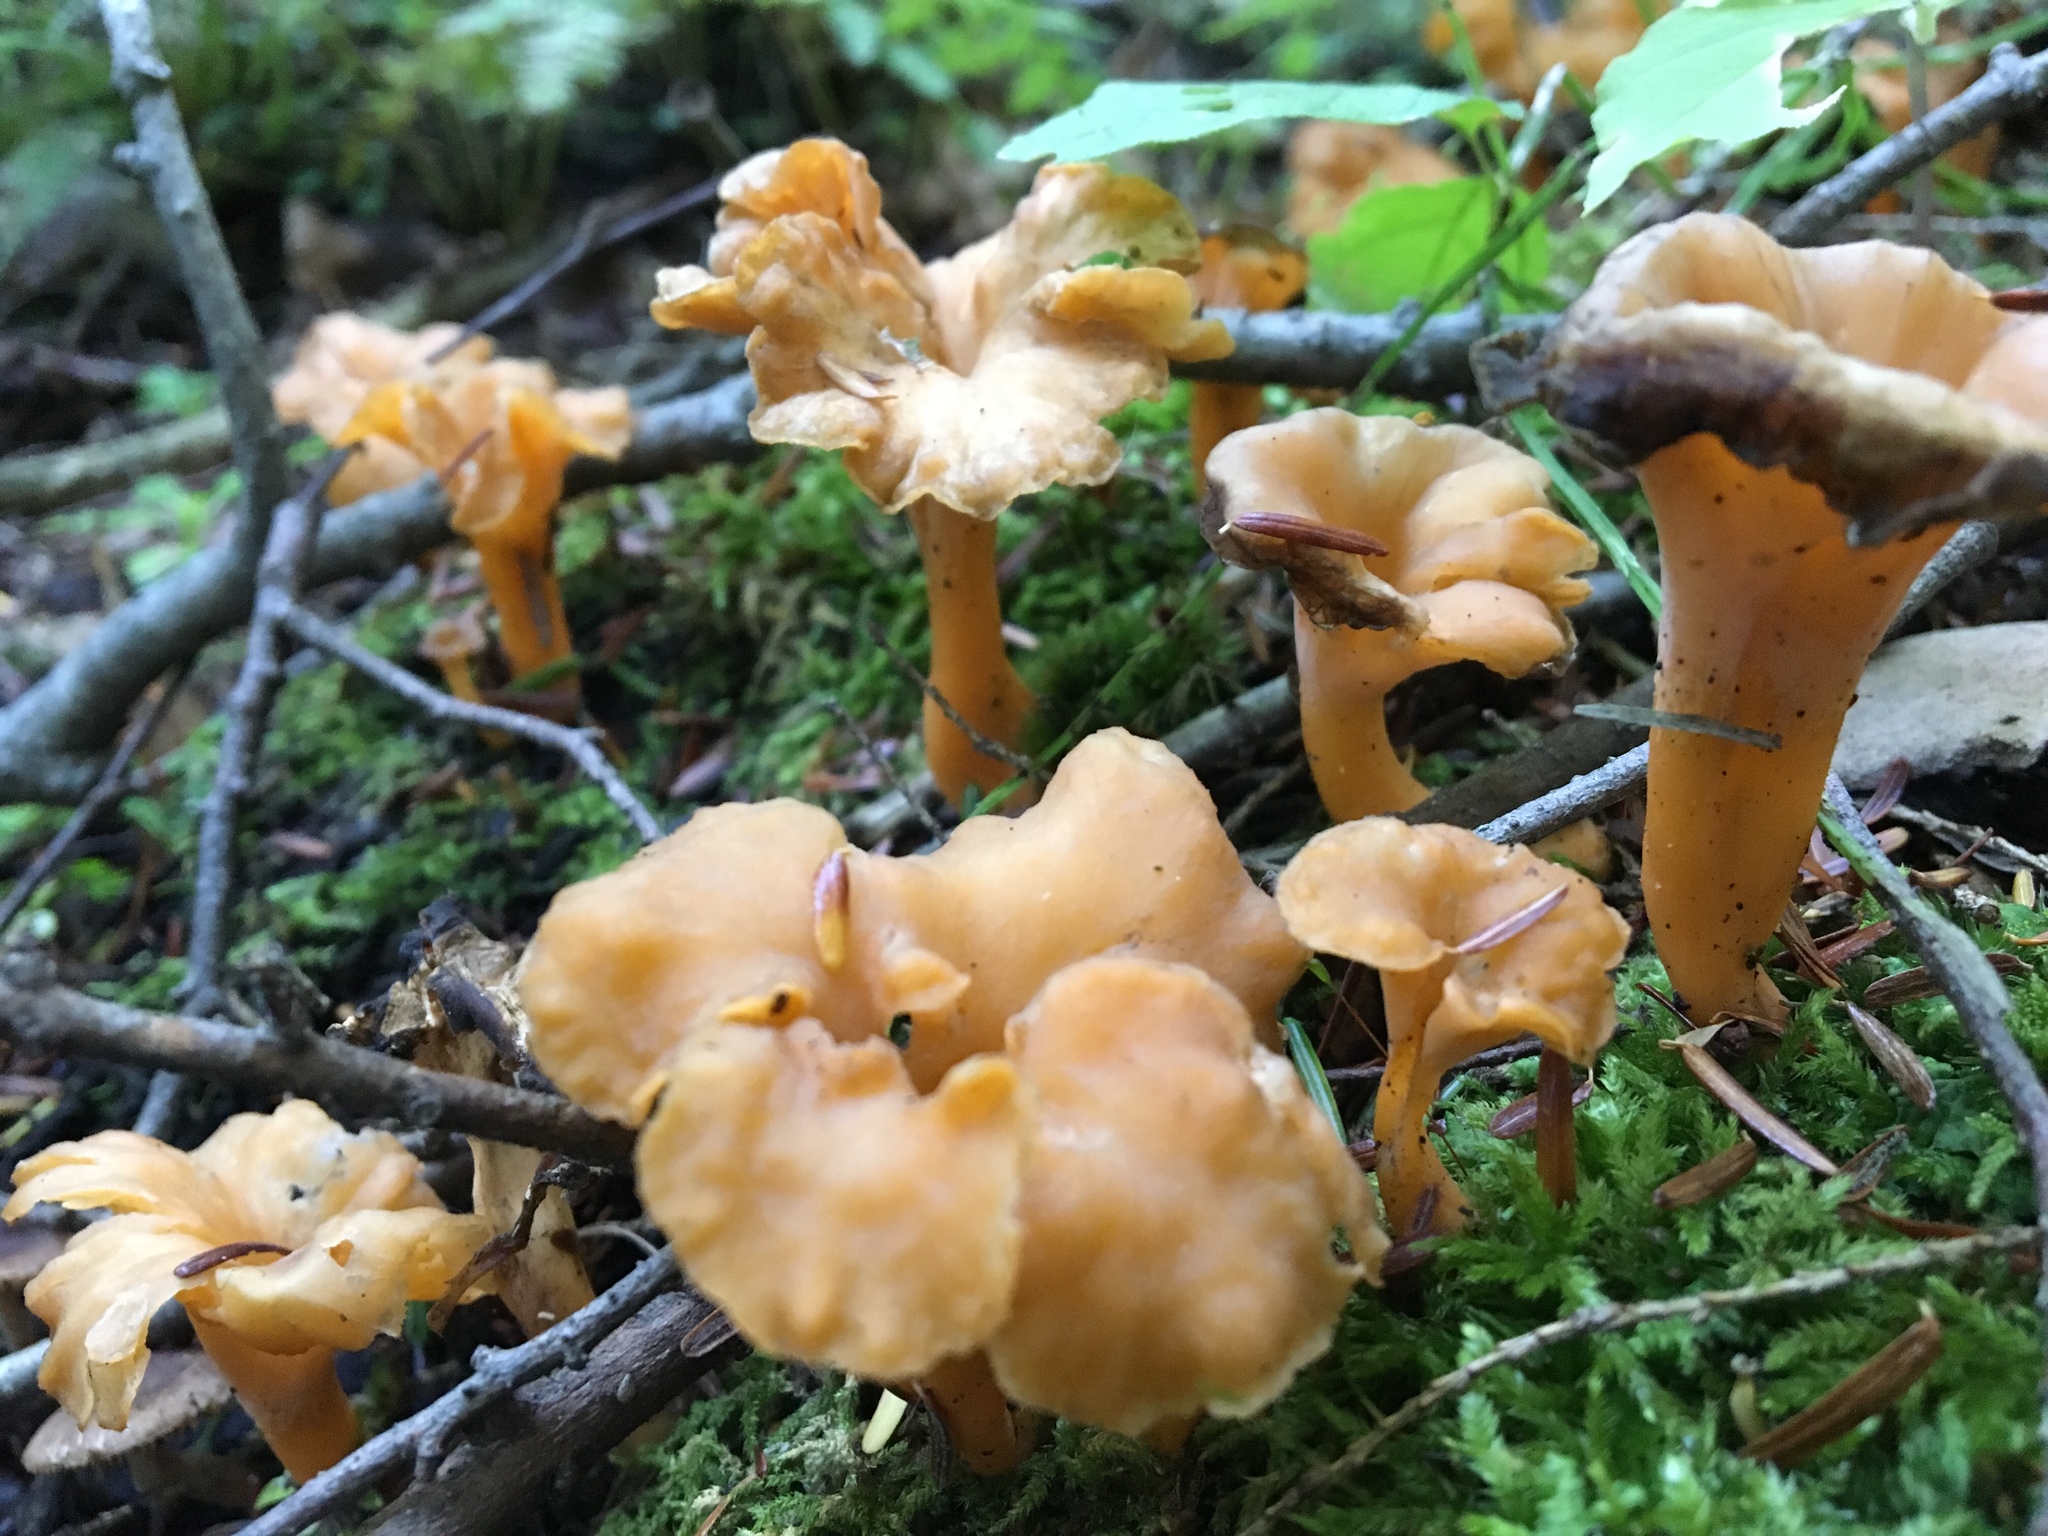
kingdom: Fungi
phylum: Basidiomycota
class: Agaricomycetes
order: Cantharellales
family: Hydnaceae
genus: Craterellus
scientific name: Craterellus lutescens
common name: Golden chanterelle
